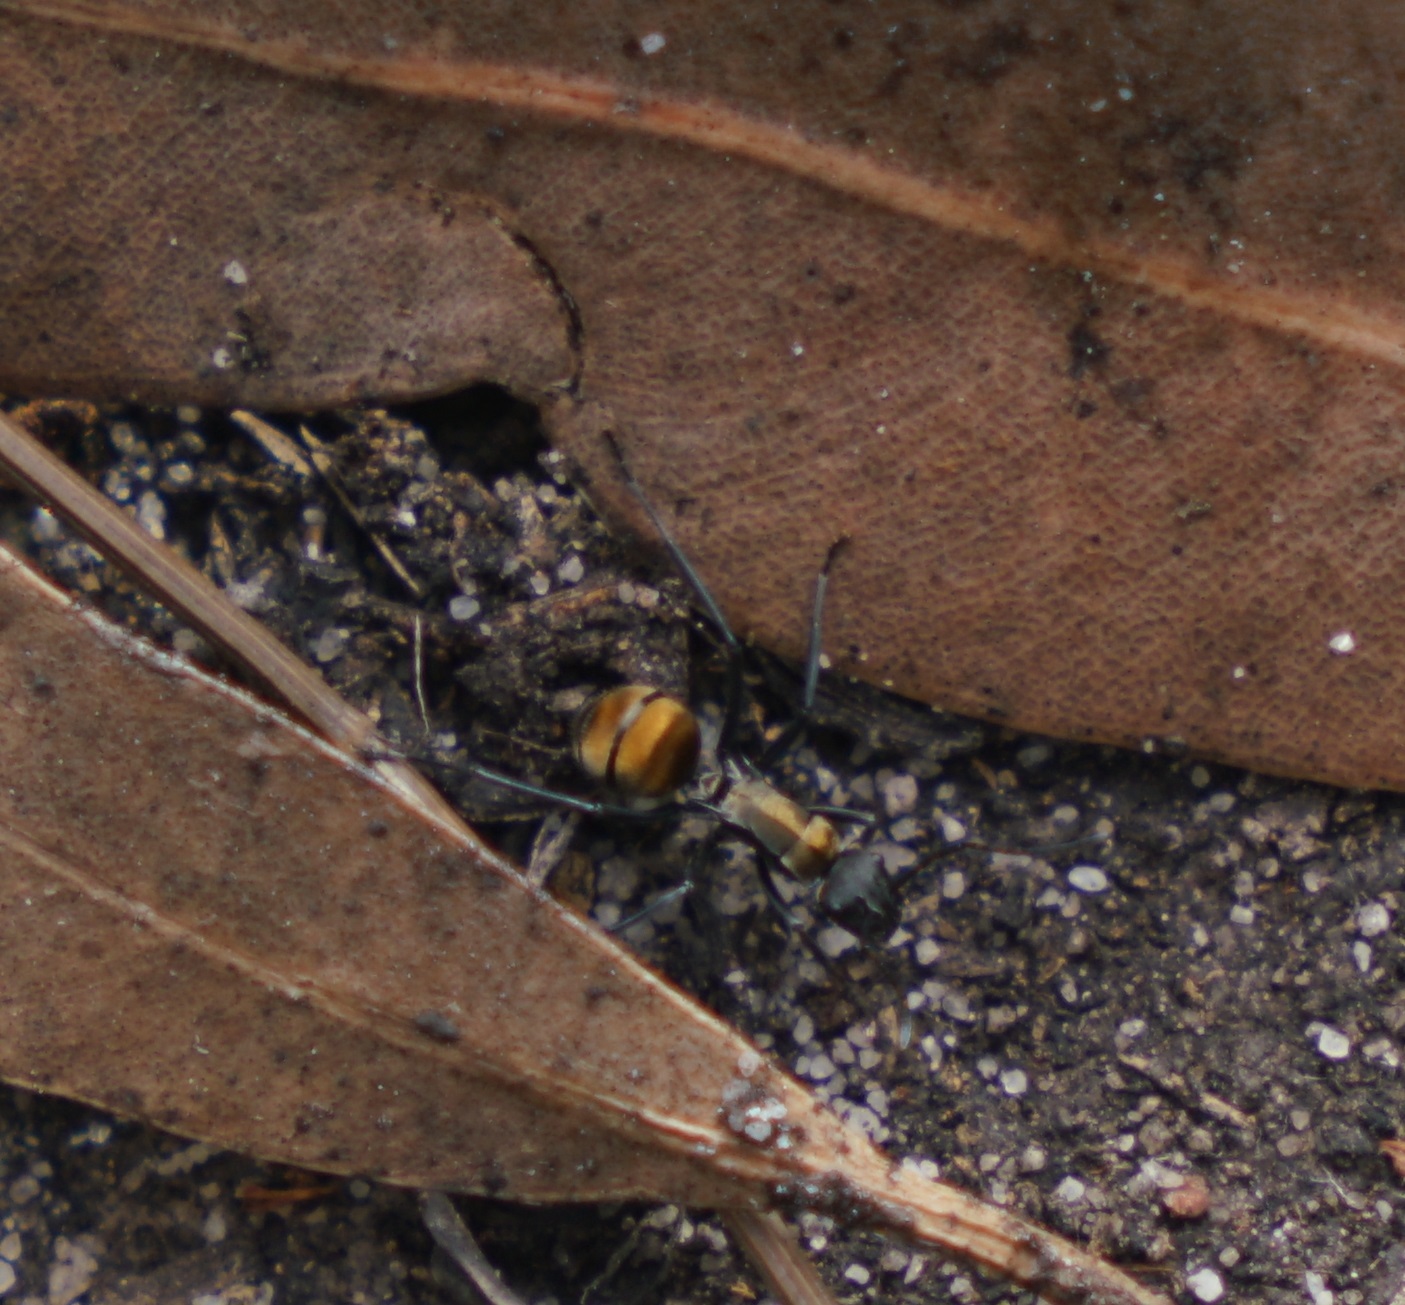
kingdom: Animalia
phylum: Arthropoda
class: Insecta
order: Hymenoptera
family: Formicidae
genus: Polyrhachis
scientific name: Polyrhachis ammon
